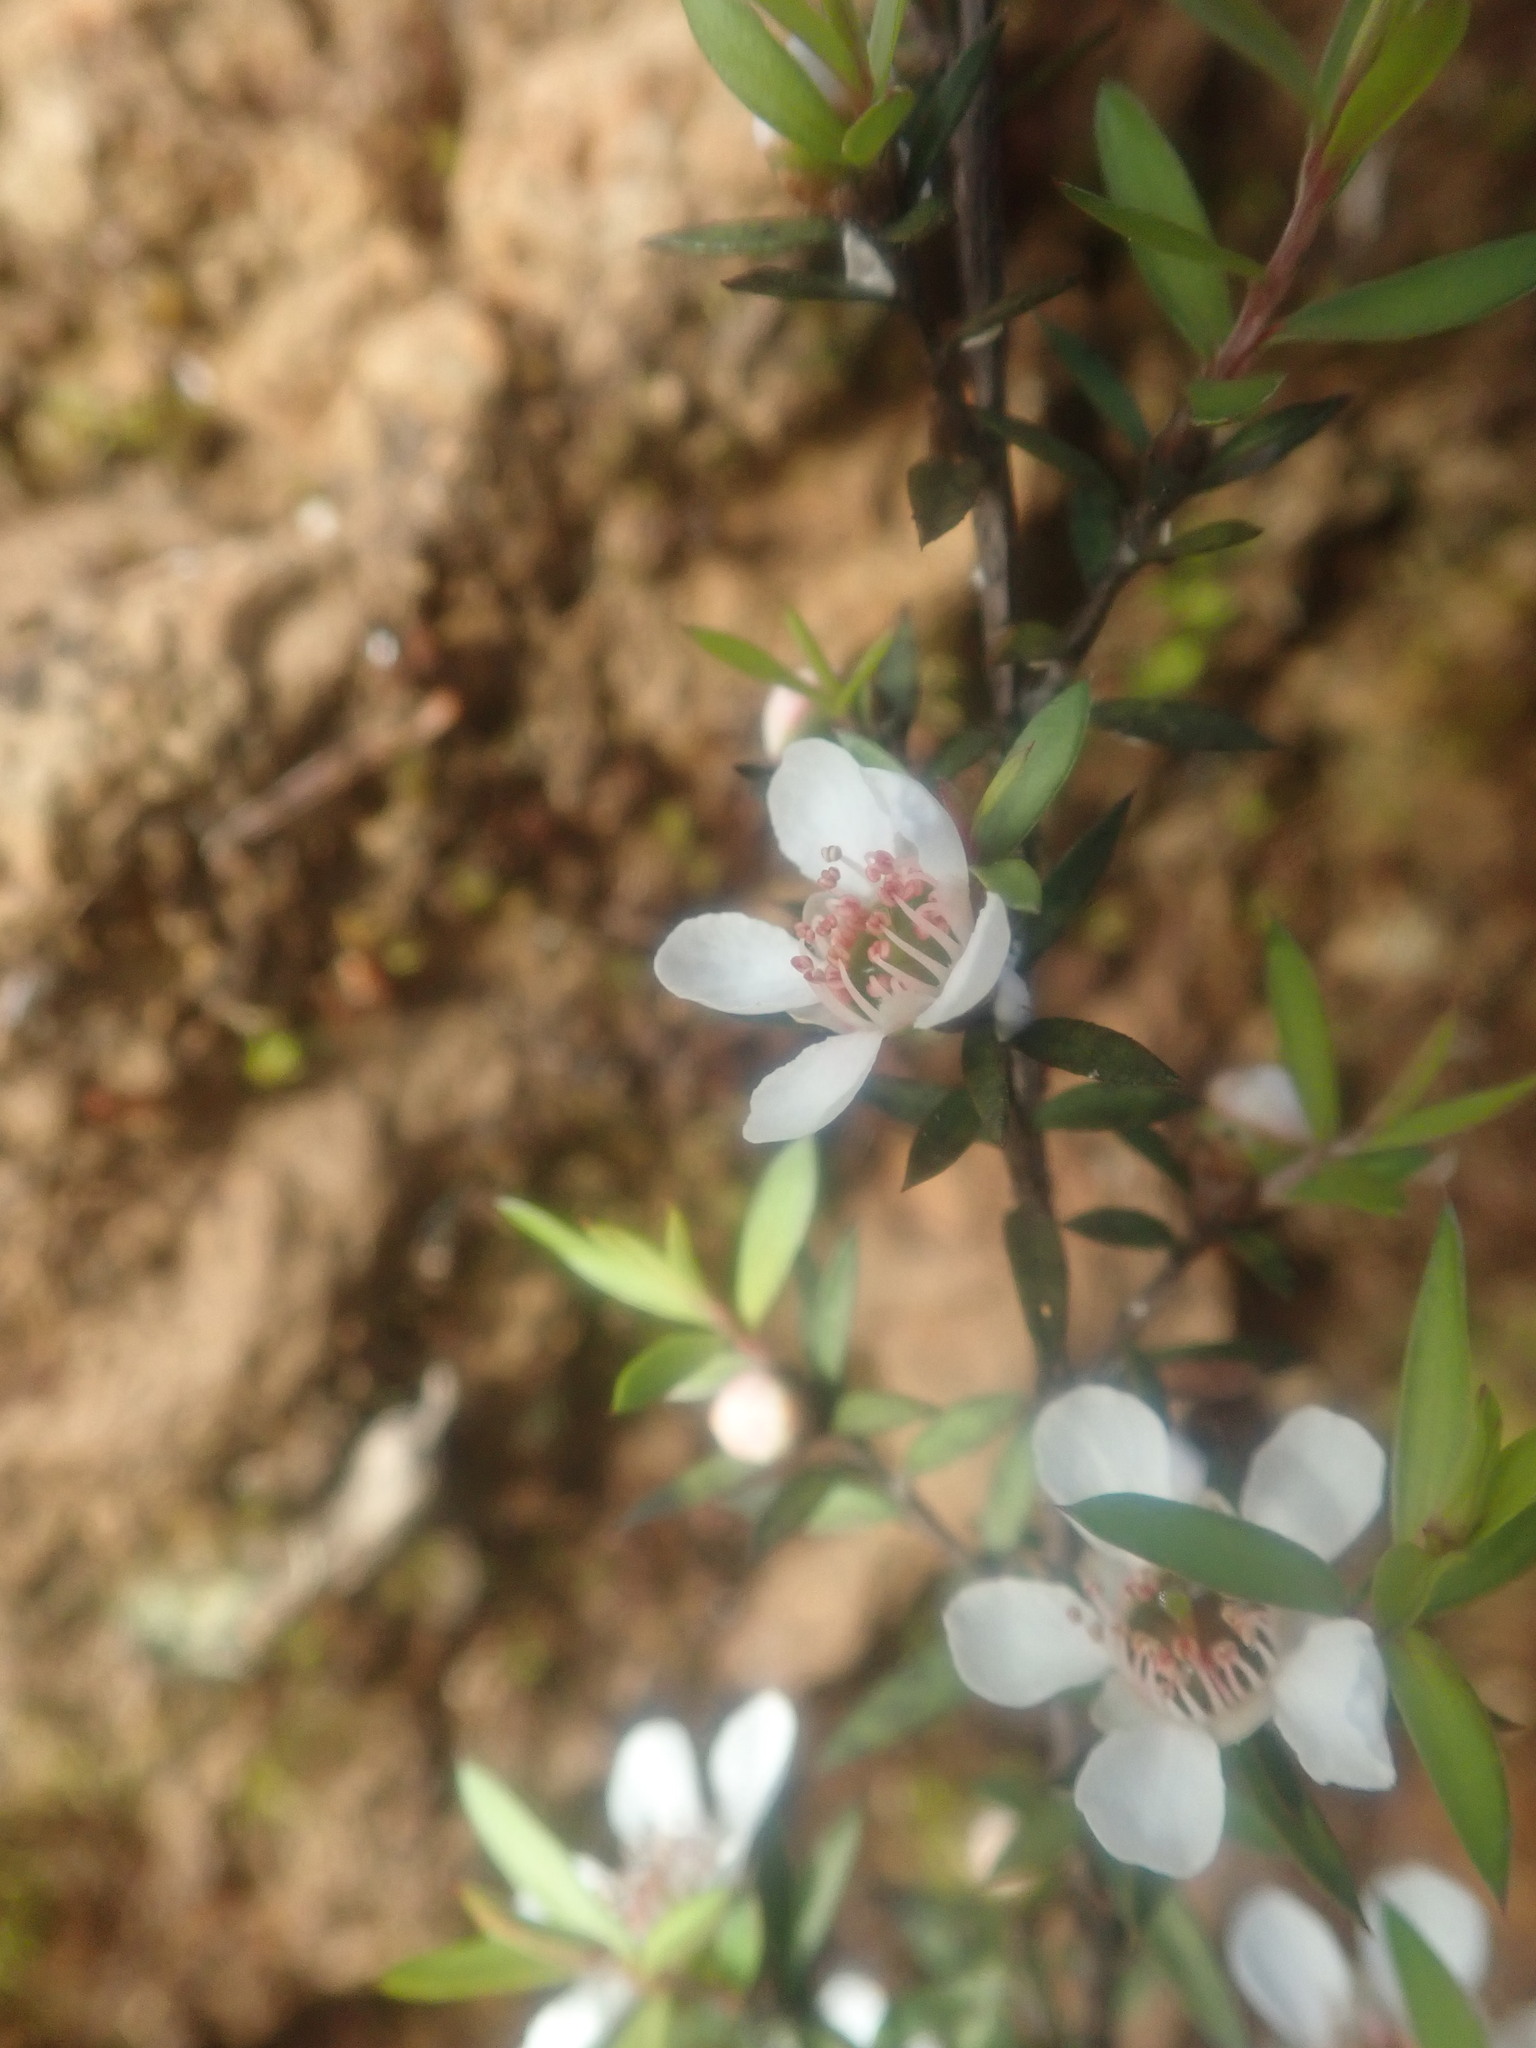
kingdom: Plantae
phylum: Tracheophyta
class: Magnoliopsida
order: Myrtales
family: Myrtaceae
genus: Leptospermum
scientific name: Leptospermum scoparium
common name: Broom tea-tree
